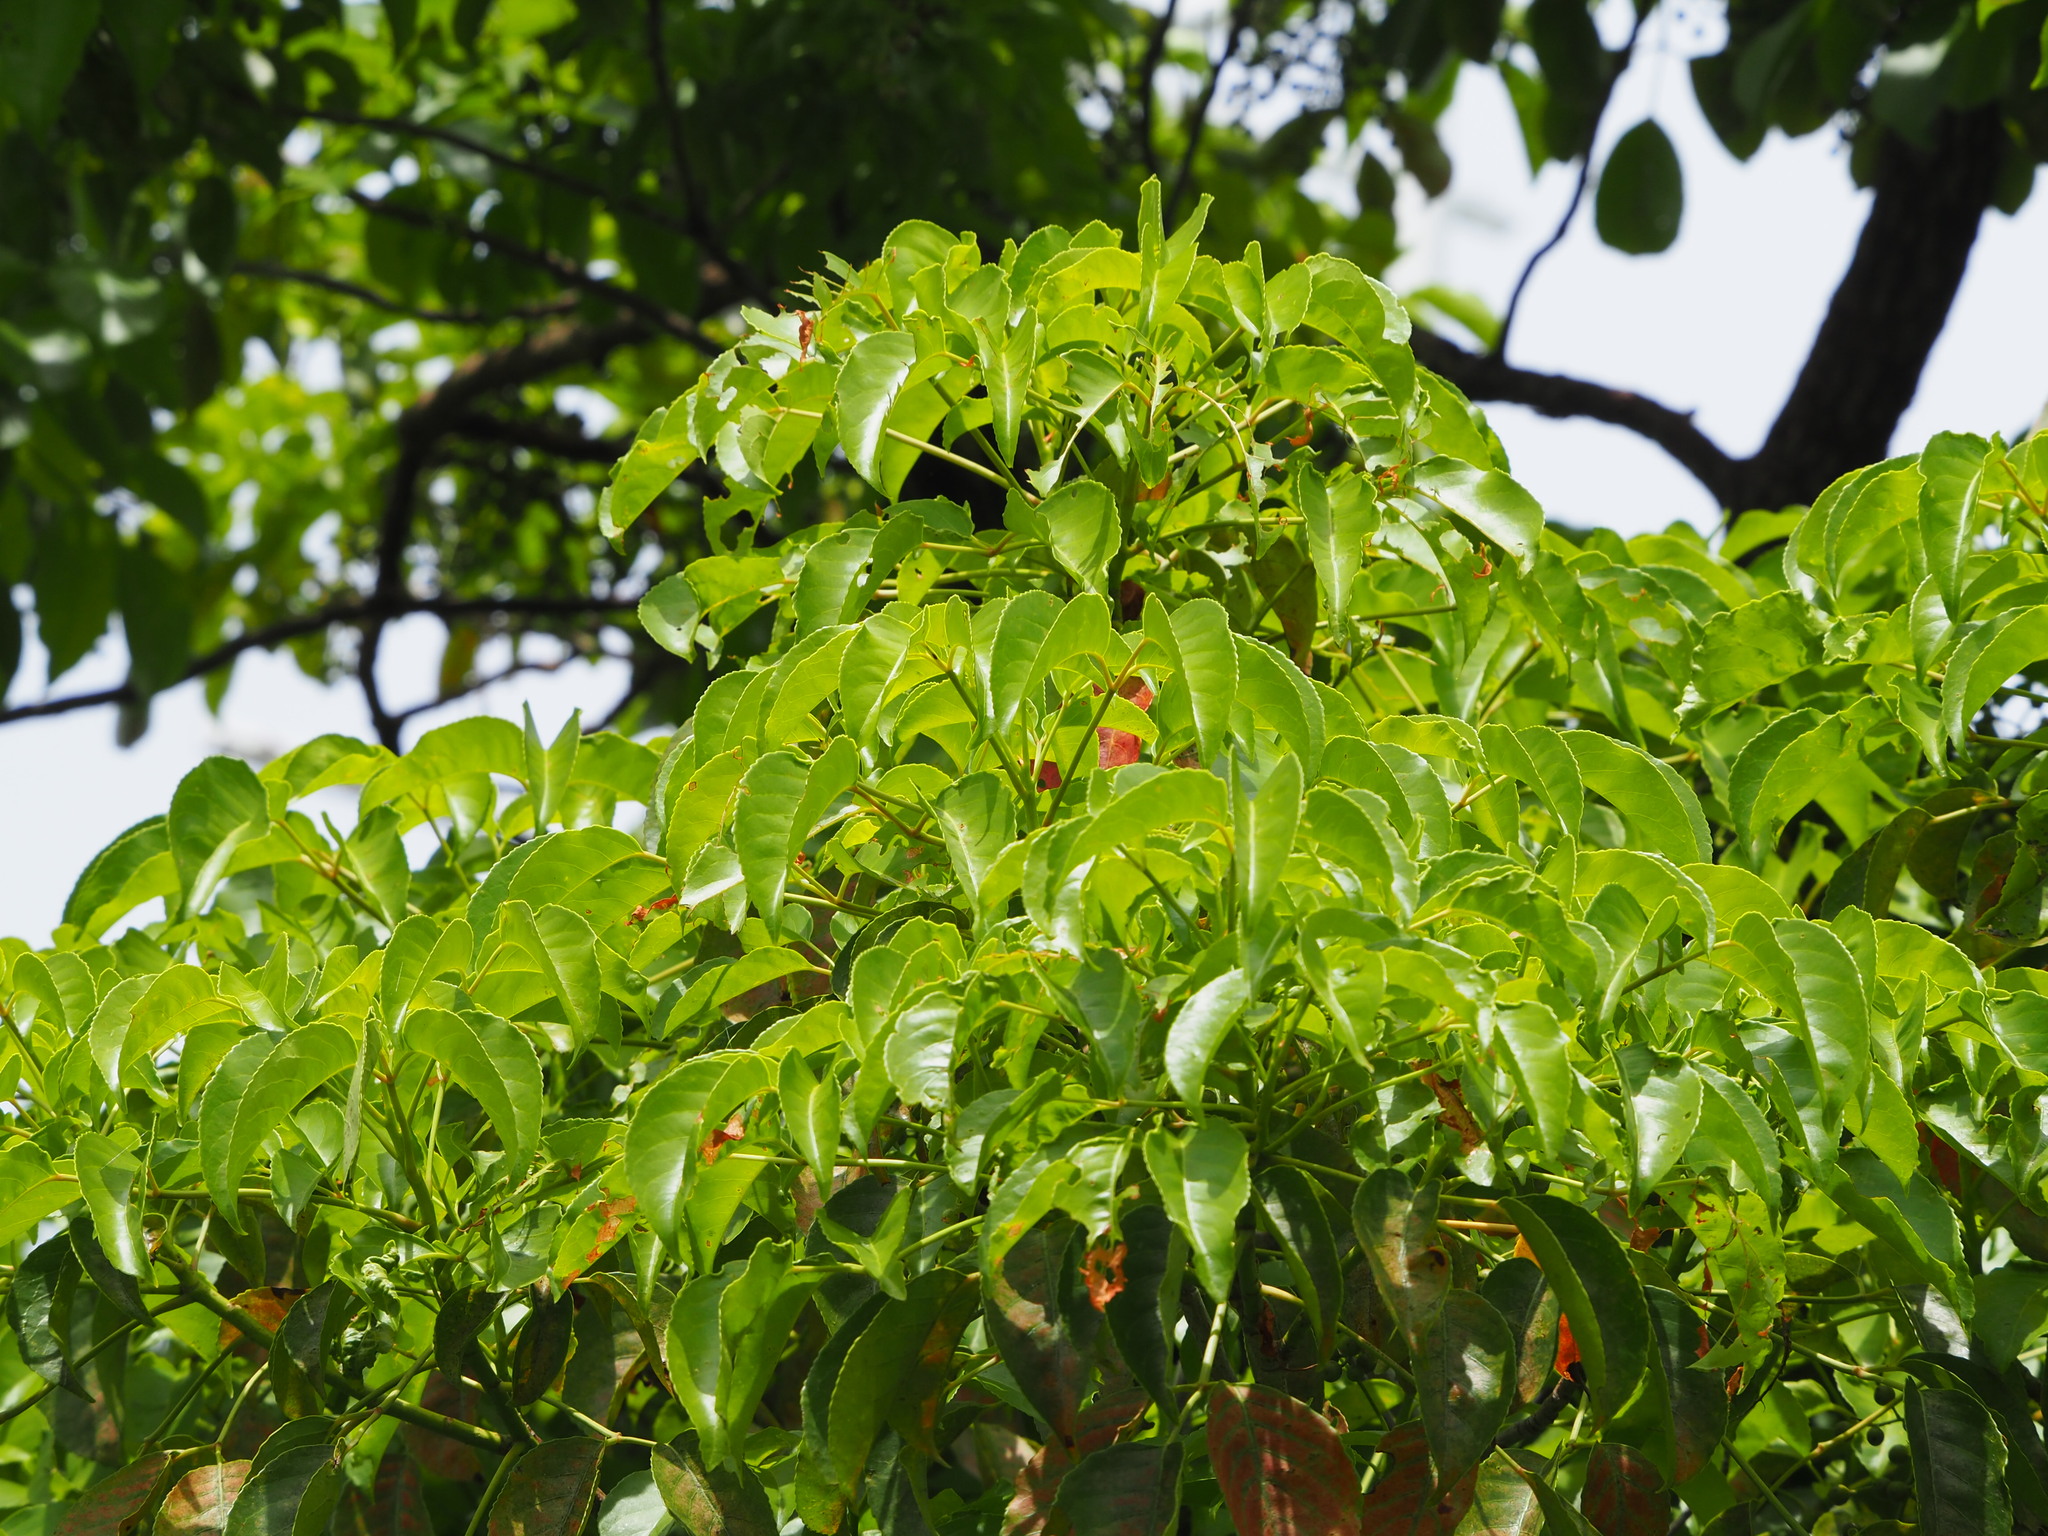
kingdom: Plantae
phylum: Tracheophyta
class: Magnoliopsida
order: Malpighiales
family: Phyllanthaceae
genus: Bischofia
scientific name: Bischofia javanica
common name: Javanese bishopwood
